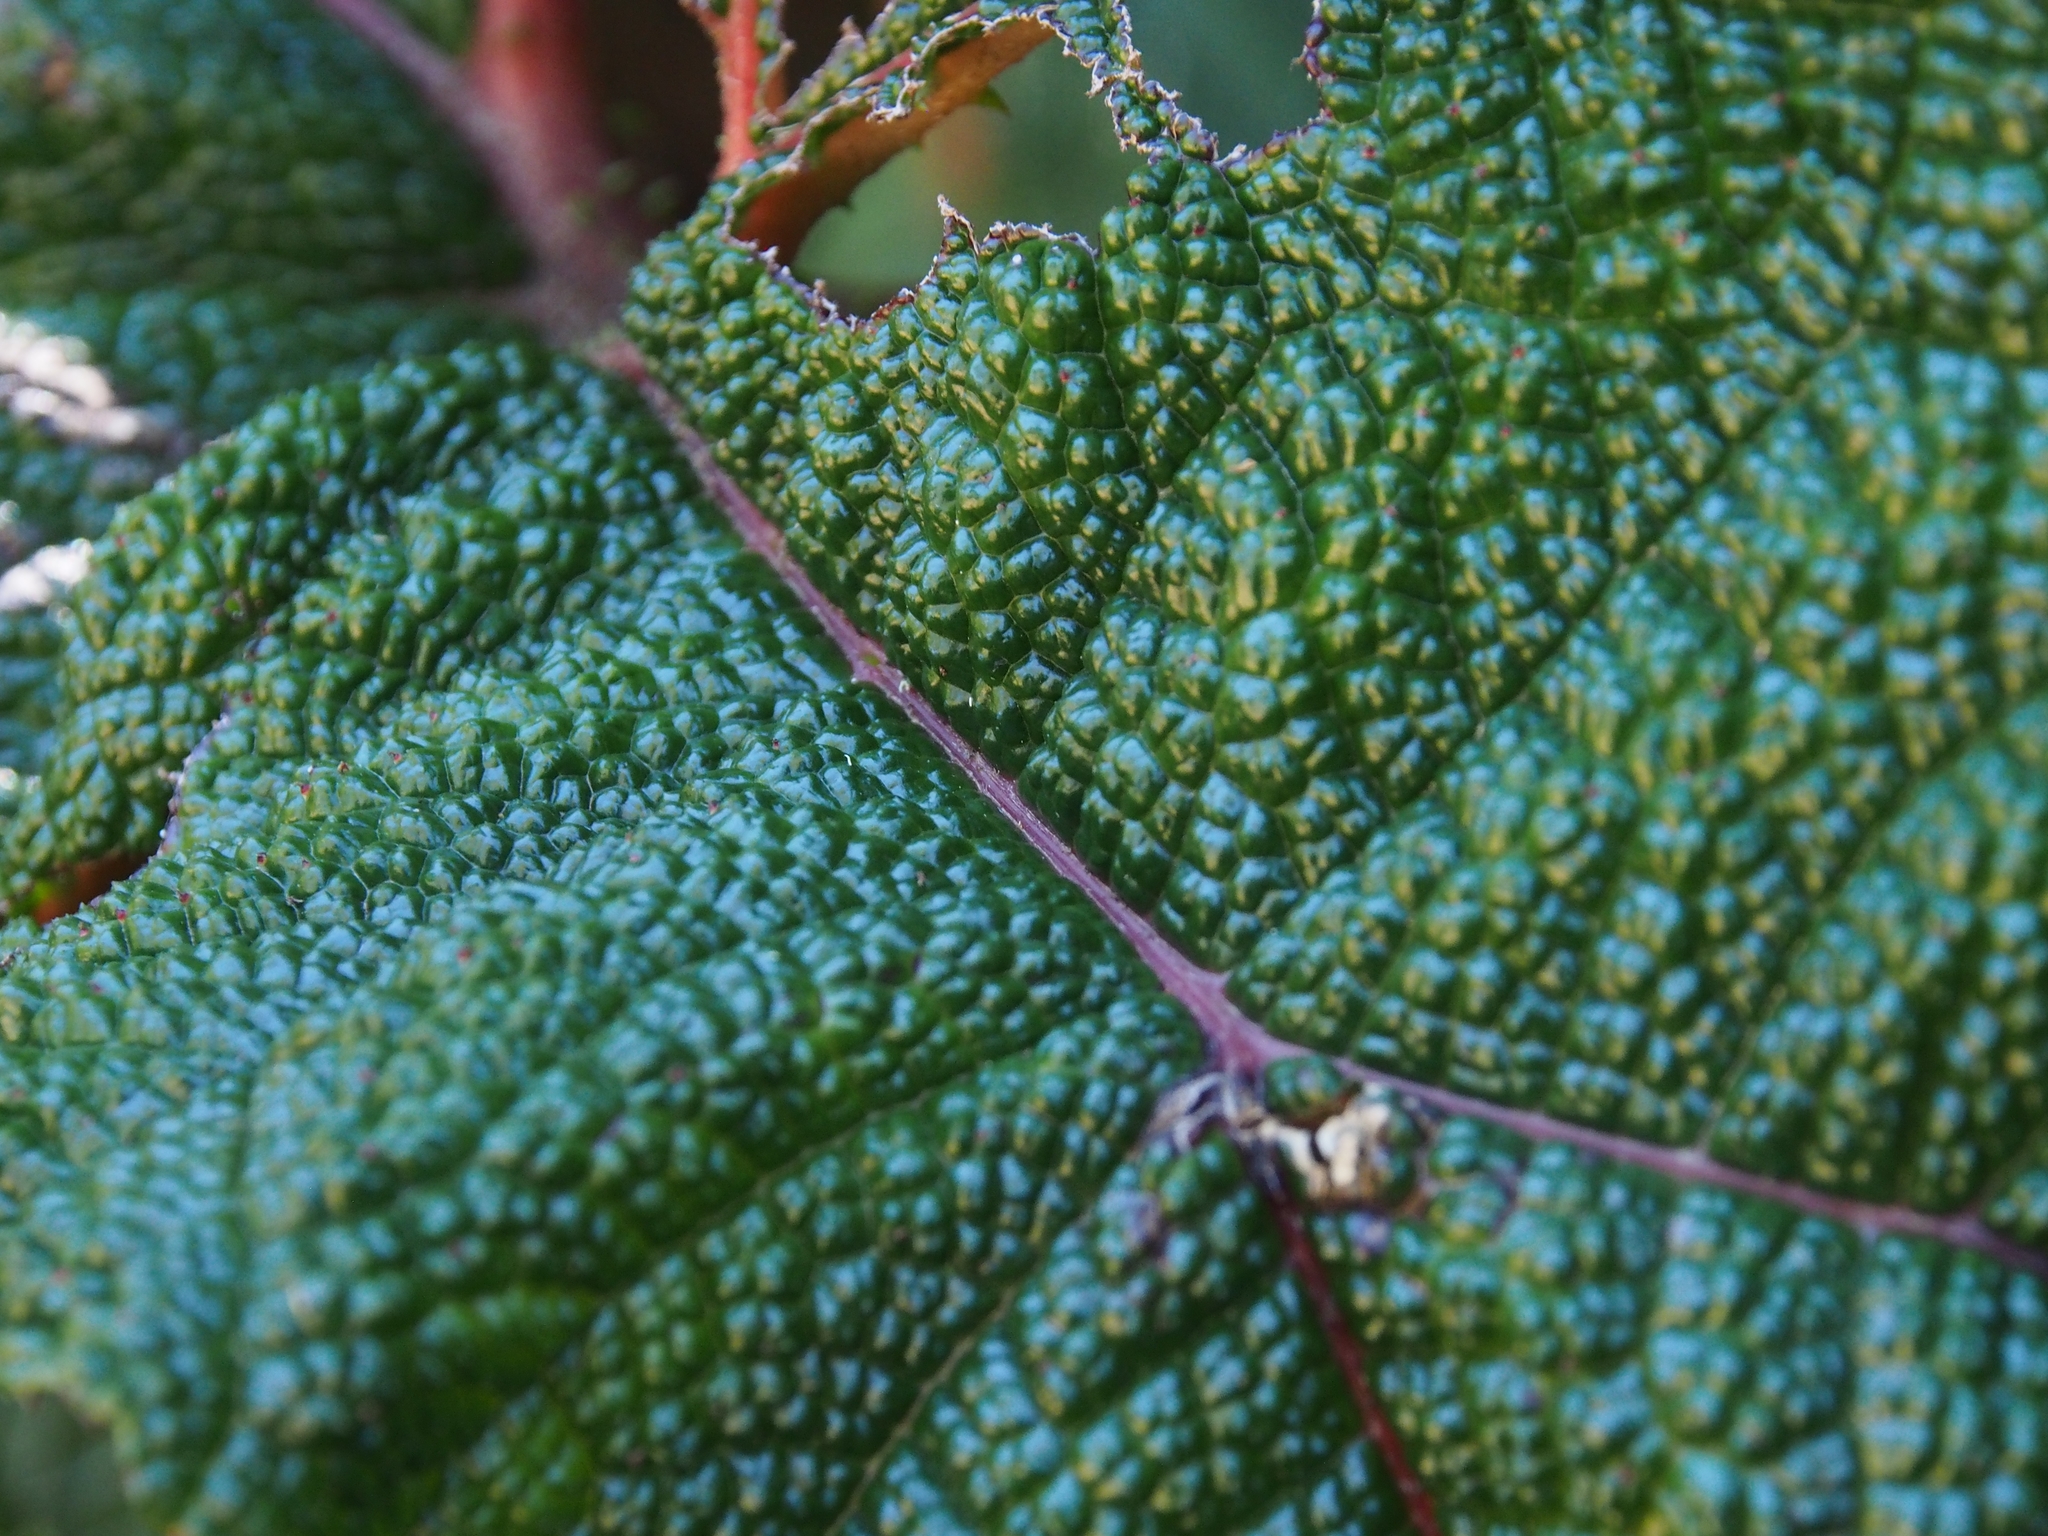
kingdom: Plantae
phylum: Tracheophyta
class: Magnoliopsida
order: Gunnerales
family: Gunneraceae
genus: Gunnera
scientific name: Gunnera talamancana
